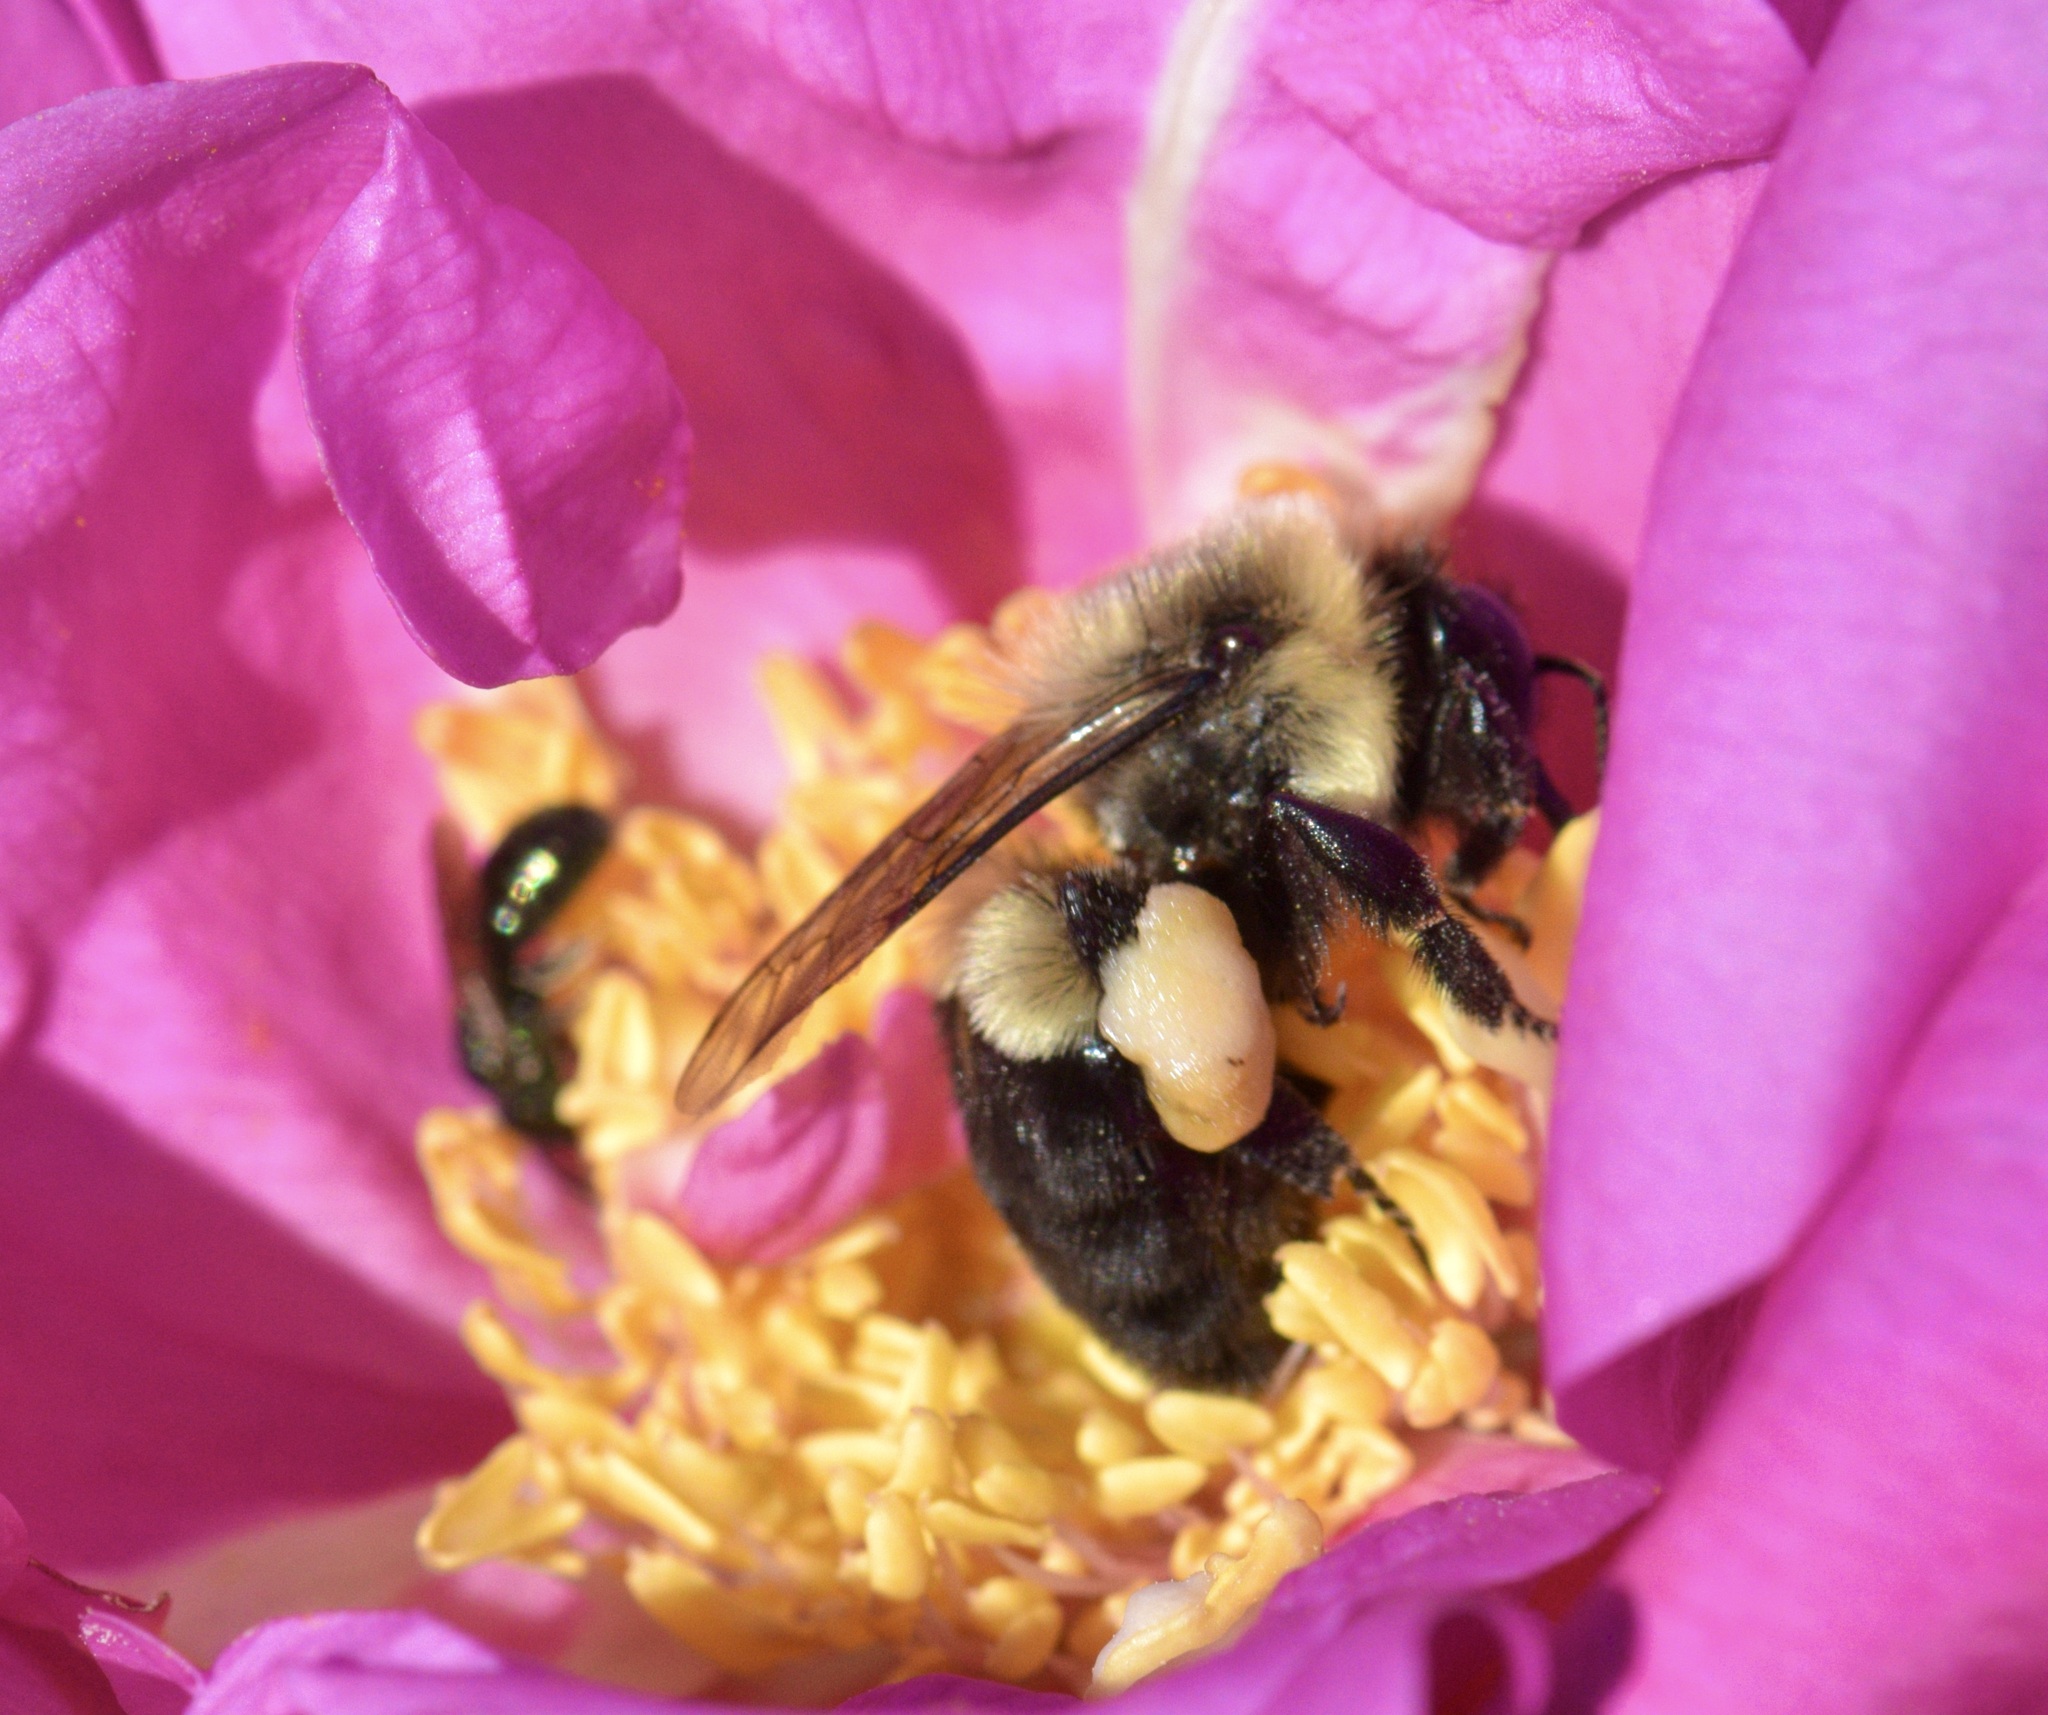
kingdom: Animalia
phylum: Arthropoda
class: Insecta
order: Hymenoptera
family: Apidae
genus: Bombus
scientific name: Bombus impatiens
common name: Common eastern bumble bee
